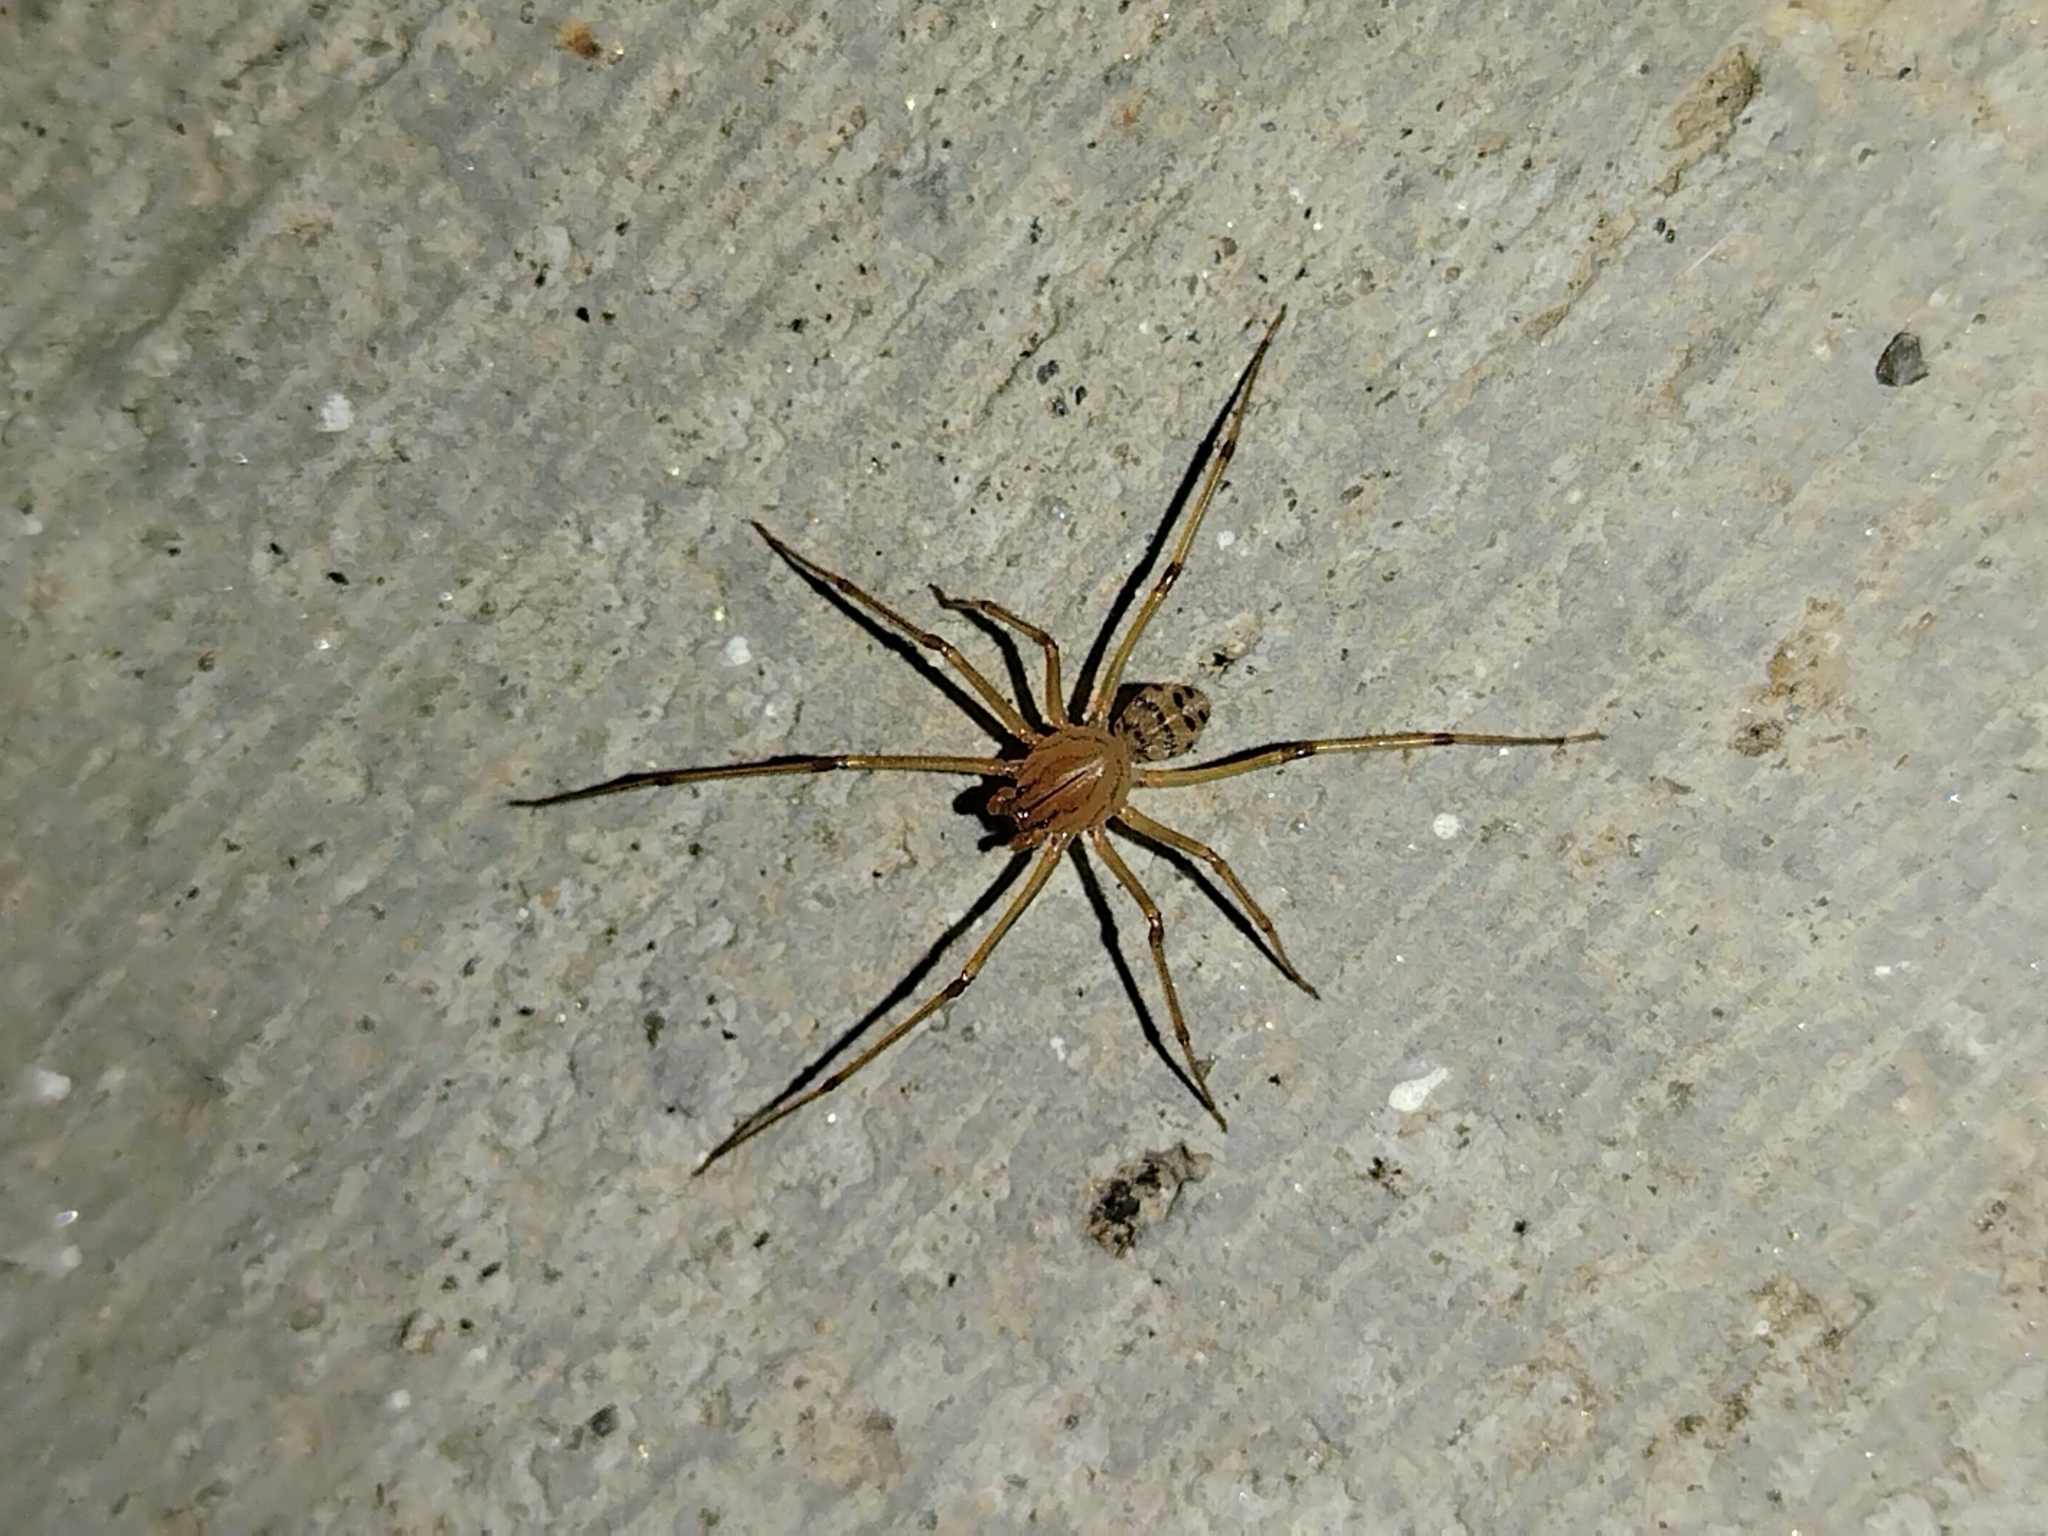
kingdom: Animalia
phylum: Arthropoda
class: Arachnida
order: Araneae
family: Scytodidae
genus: Dictis
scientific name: Dictis striatipes
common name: Spider
